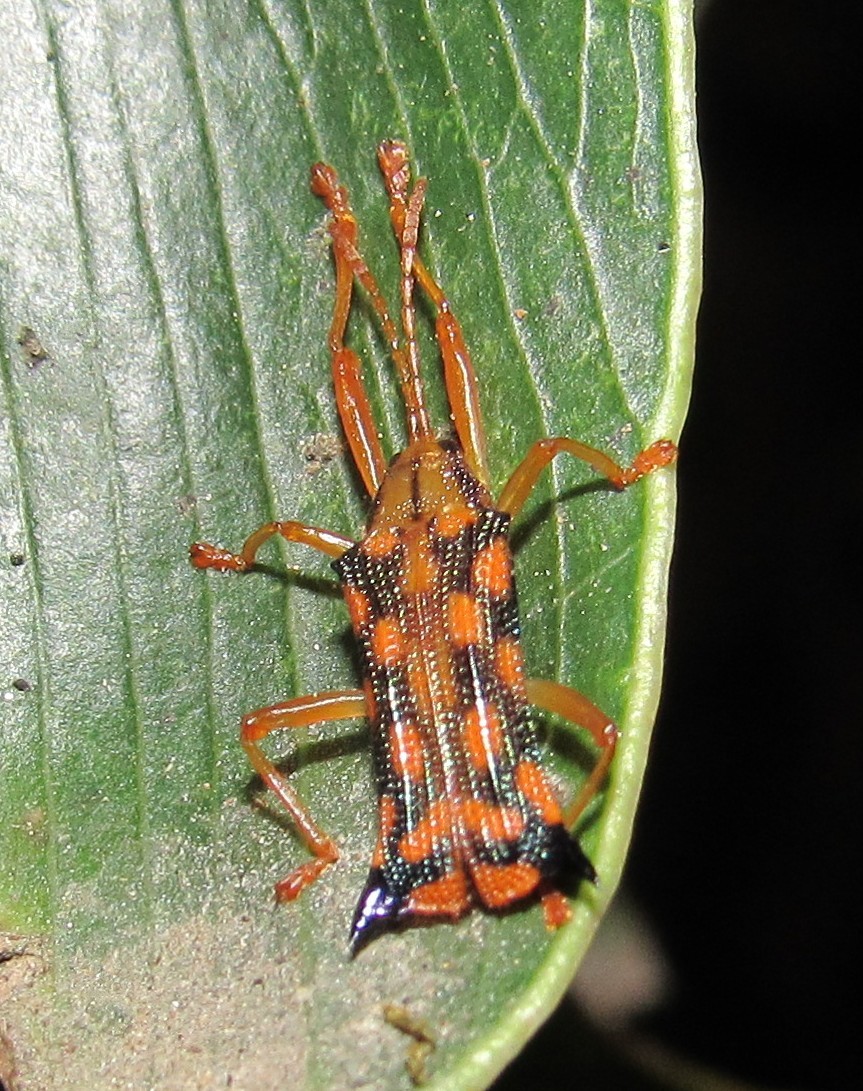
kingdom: Animalia
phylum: Arthropoda
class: Insecta
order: Coleoptera
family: Chrysomelidae
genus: Sceloenopla
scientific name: Sceloenopla pretiosa
